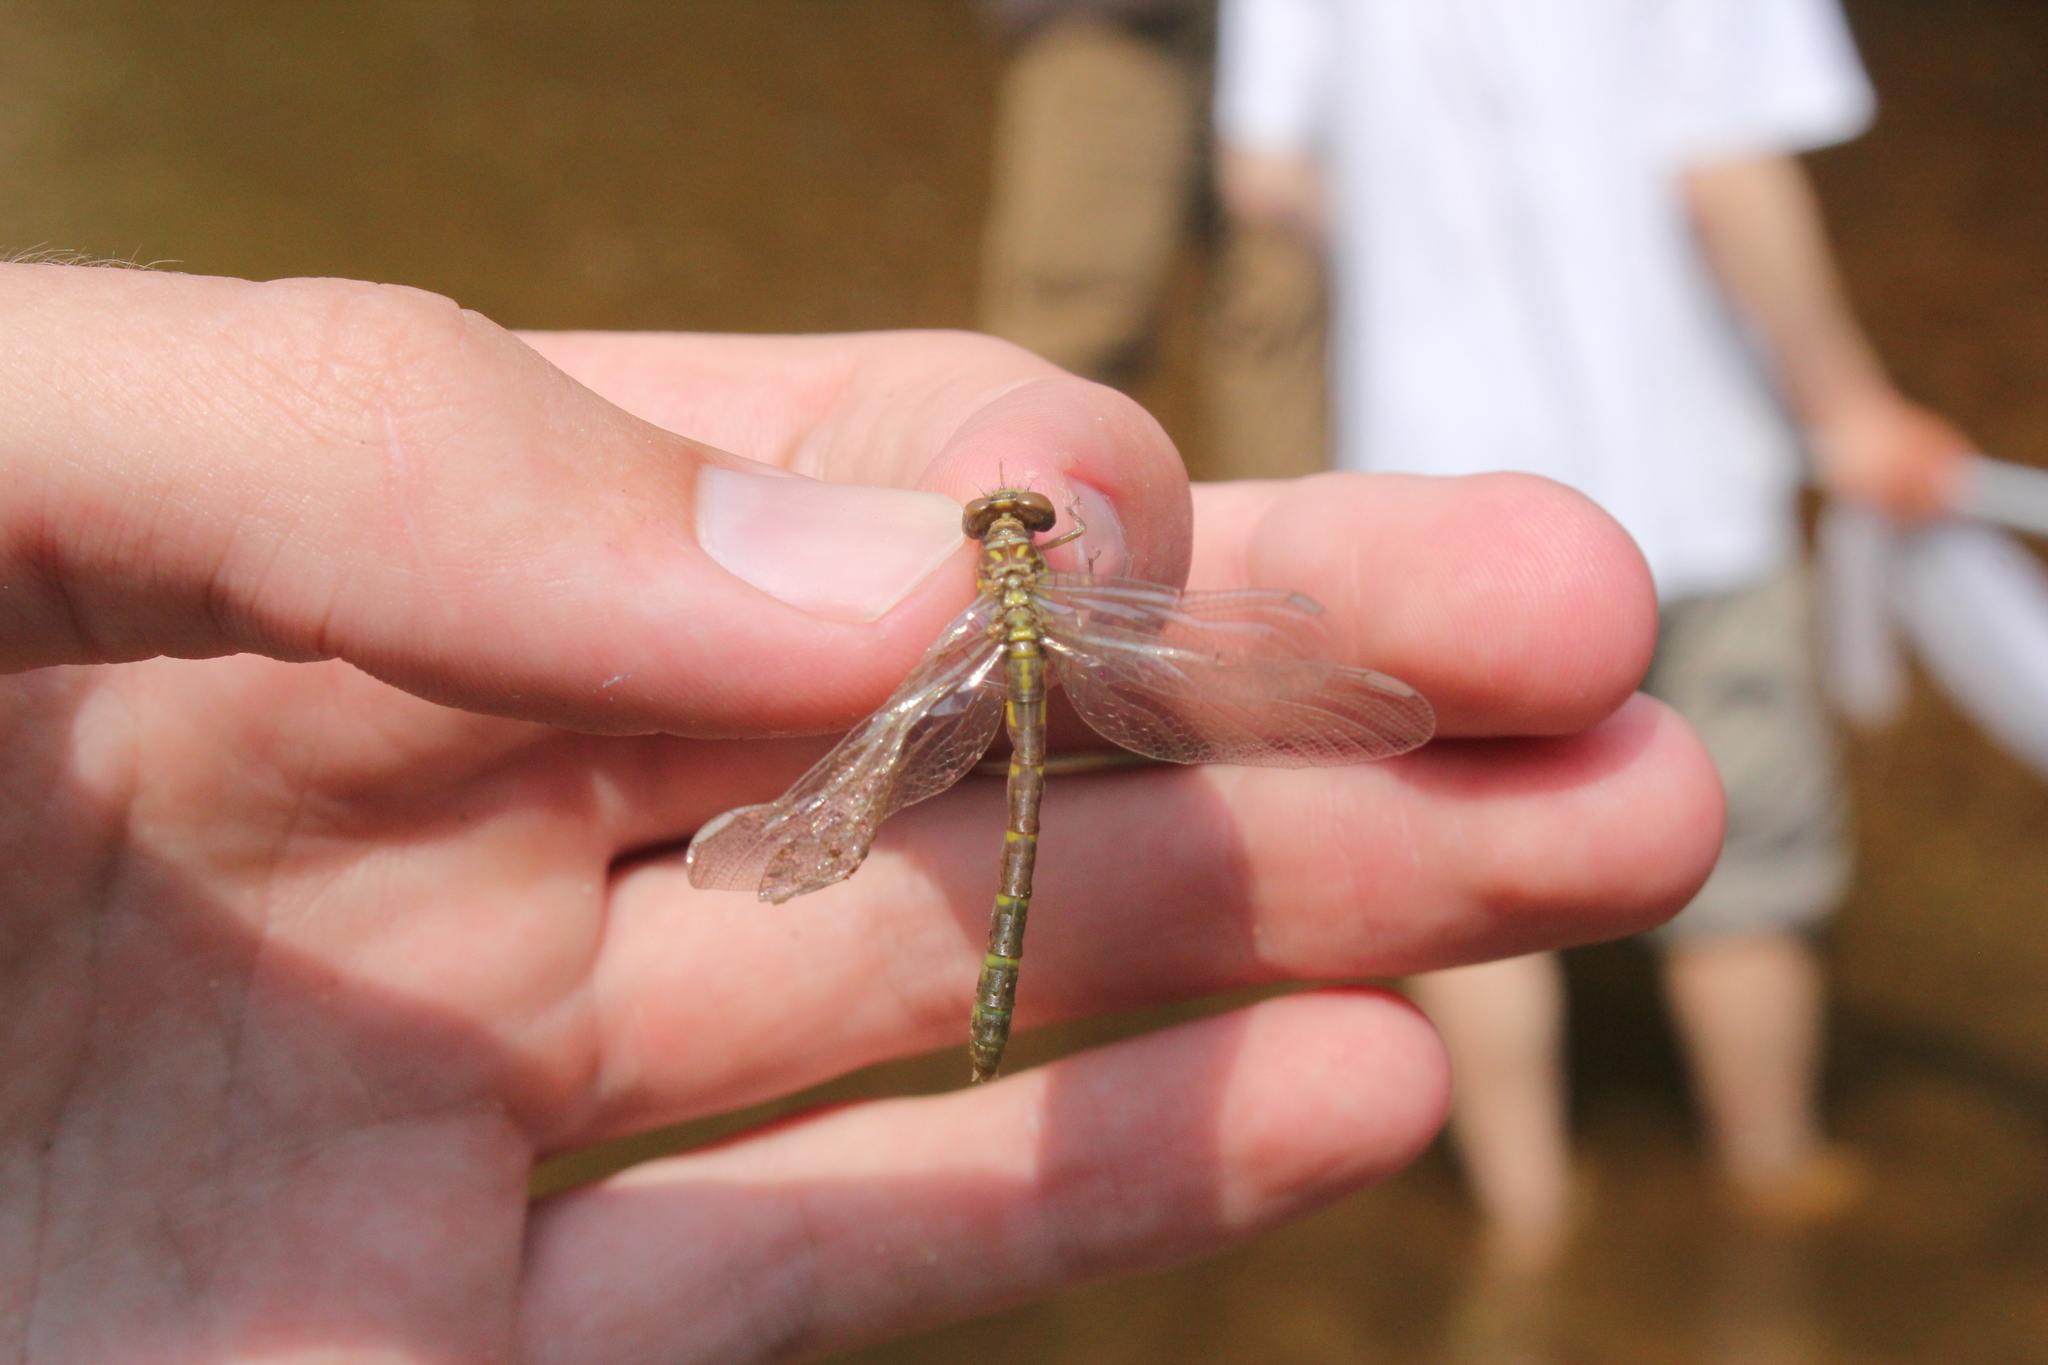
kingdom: Animalia
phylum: Arthropoda
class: Insecta
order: Odonata
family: Gomphidae
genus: Stylogomphus
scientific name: Stylogomphus albistylus
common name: Eastern least clubtail
